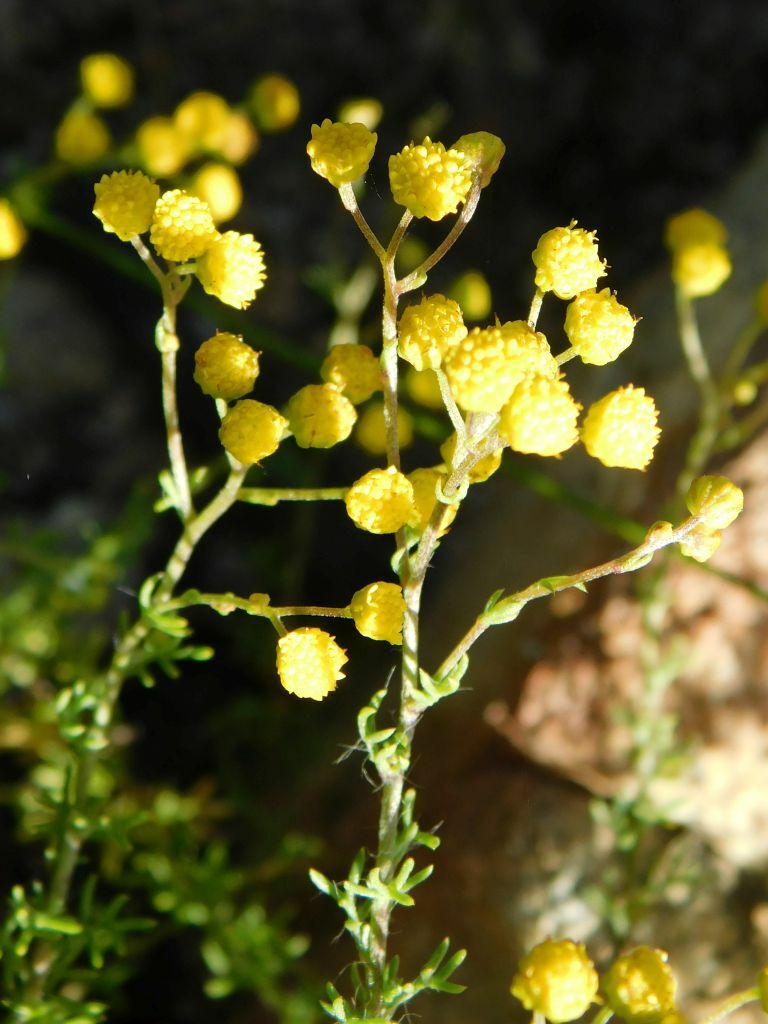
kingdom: Plantae
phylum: Tracheophyta
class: Magnoliopsida
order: Asterales
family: Asteraceae
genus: Hippia
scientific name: Hippia pilosa
